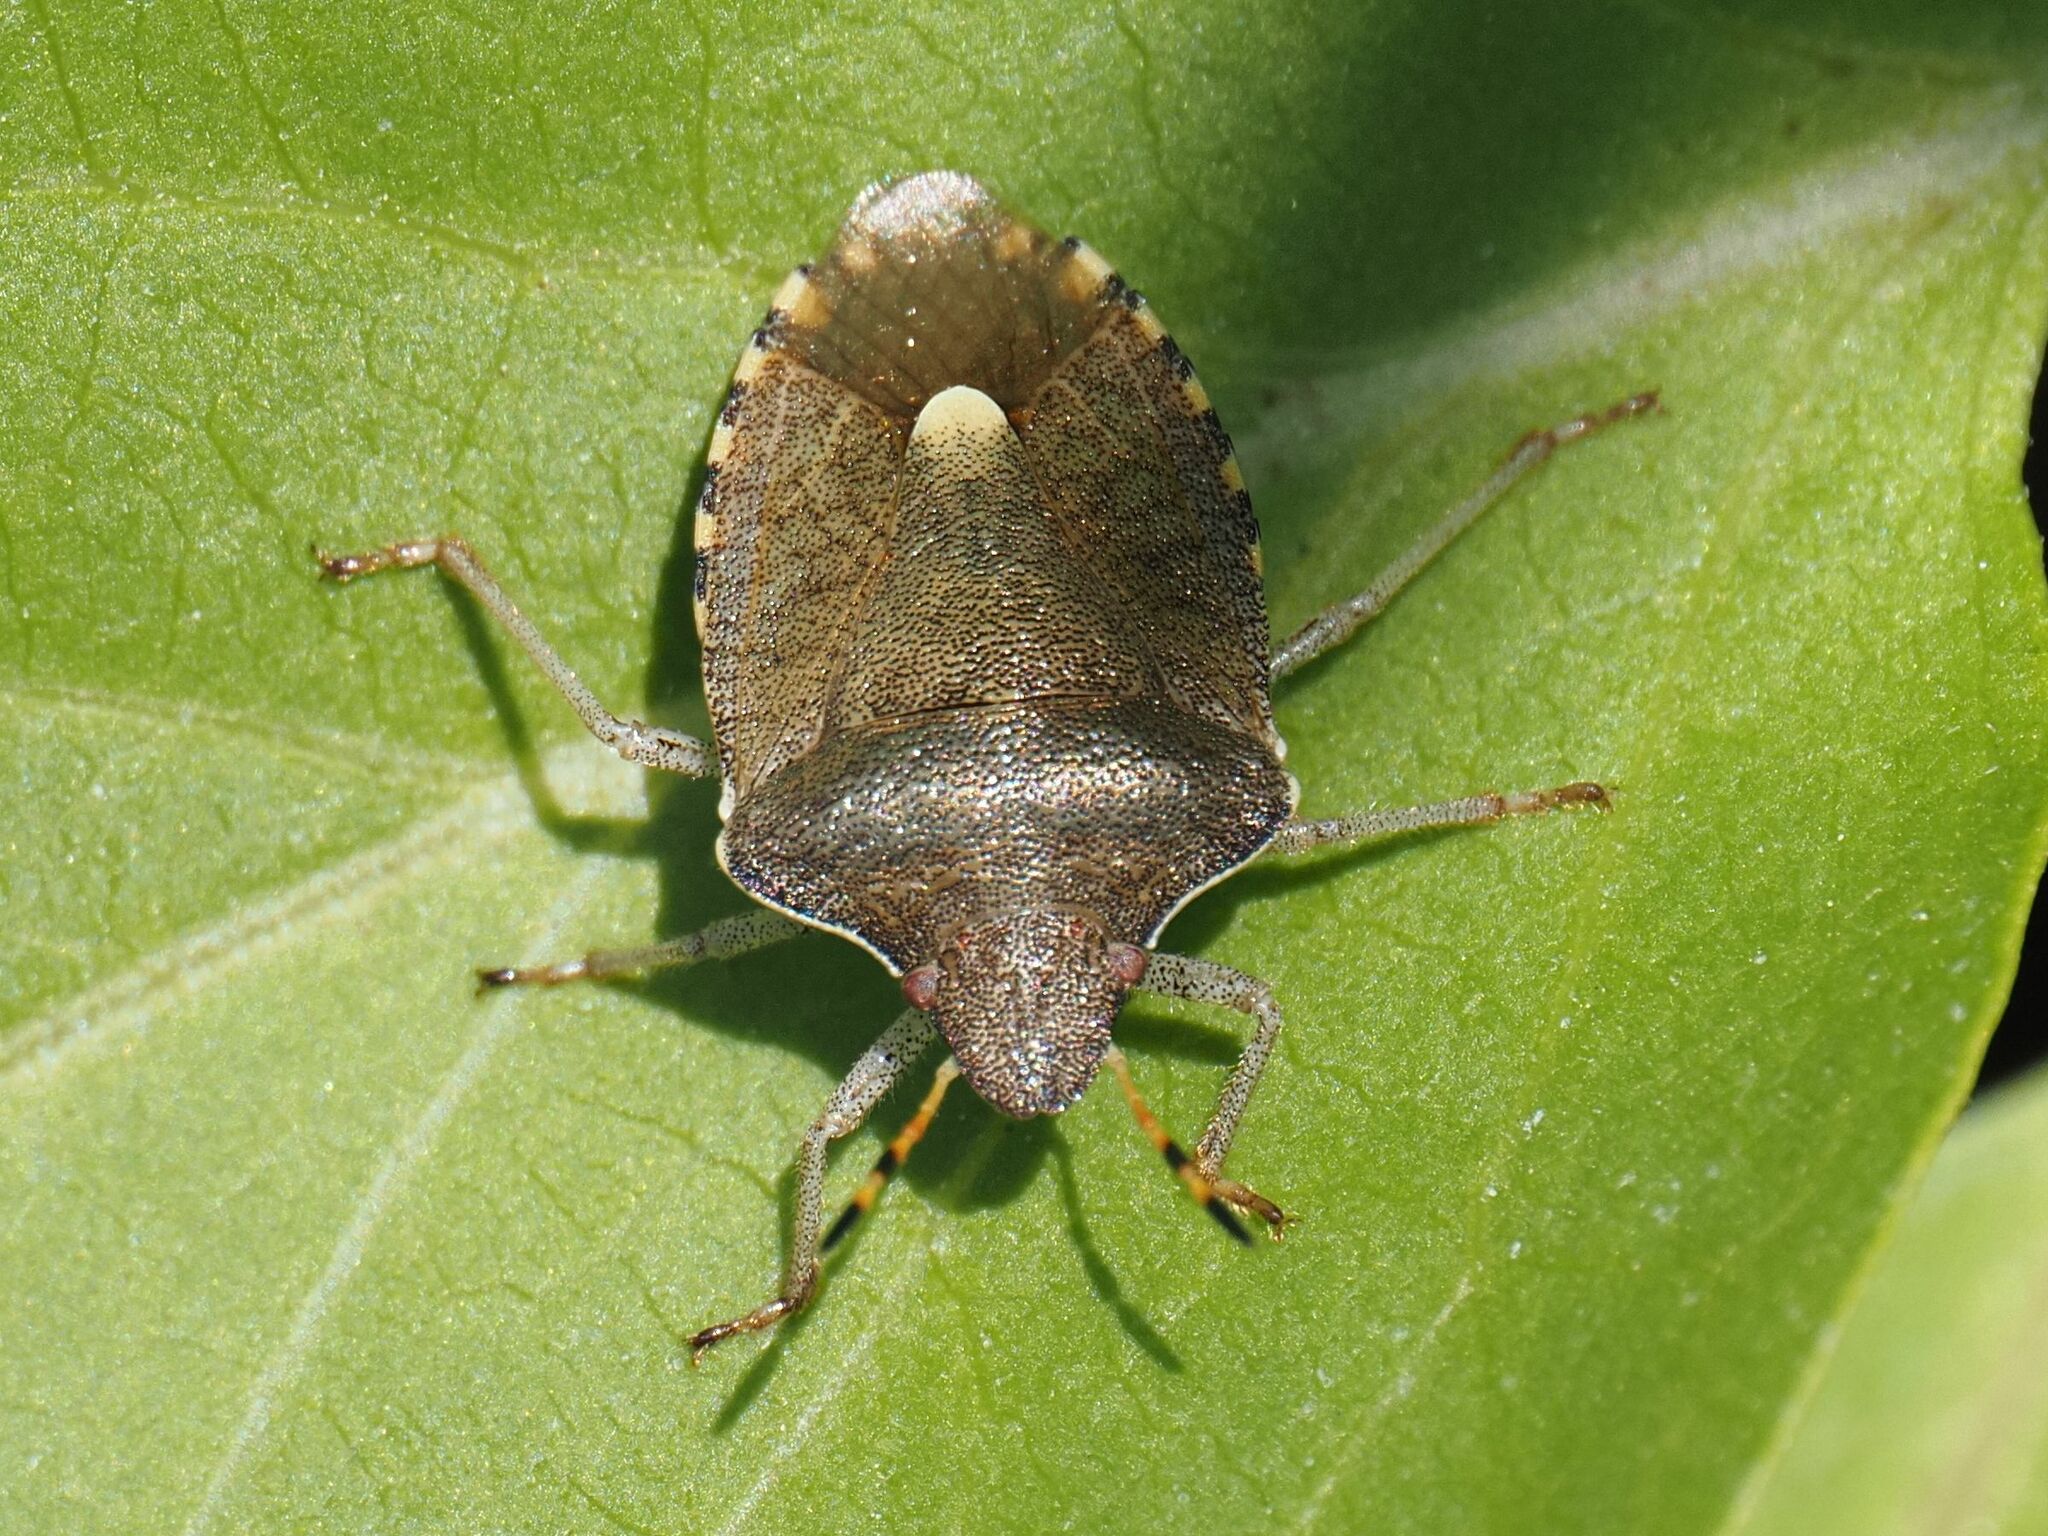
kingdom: Animalia
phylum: Arthropoda
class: Insecta
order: Hemiptera
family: Pentatomidae
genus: Holcostethus
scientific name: Holcostethus strictus
